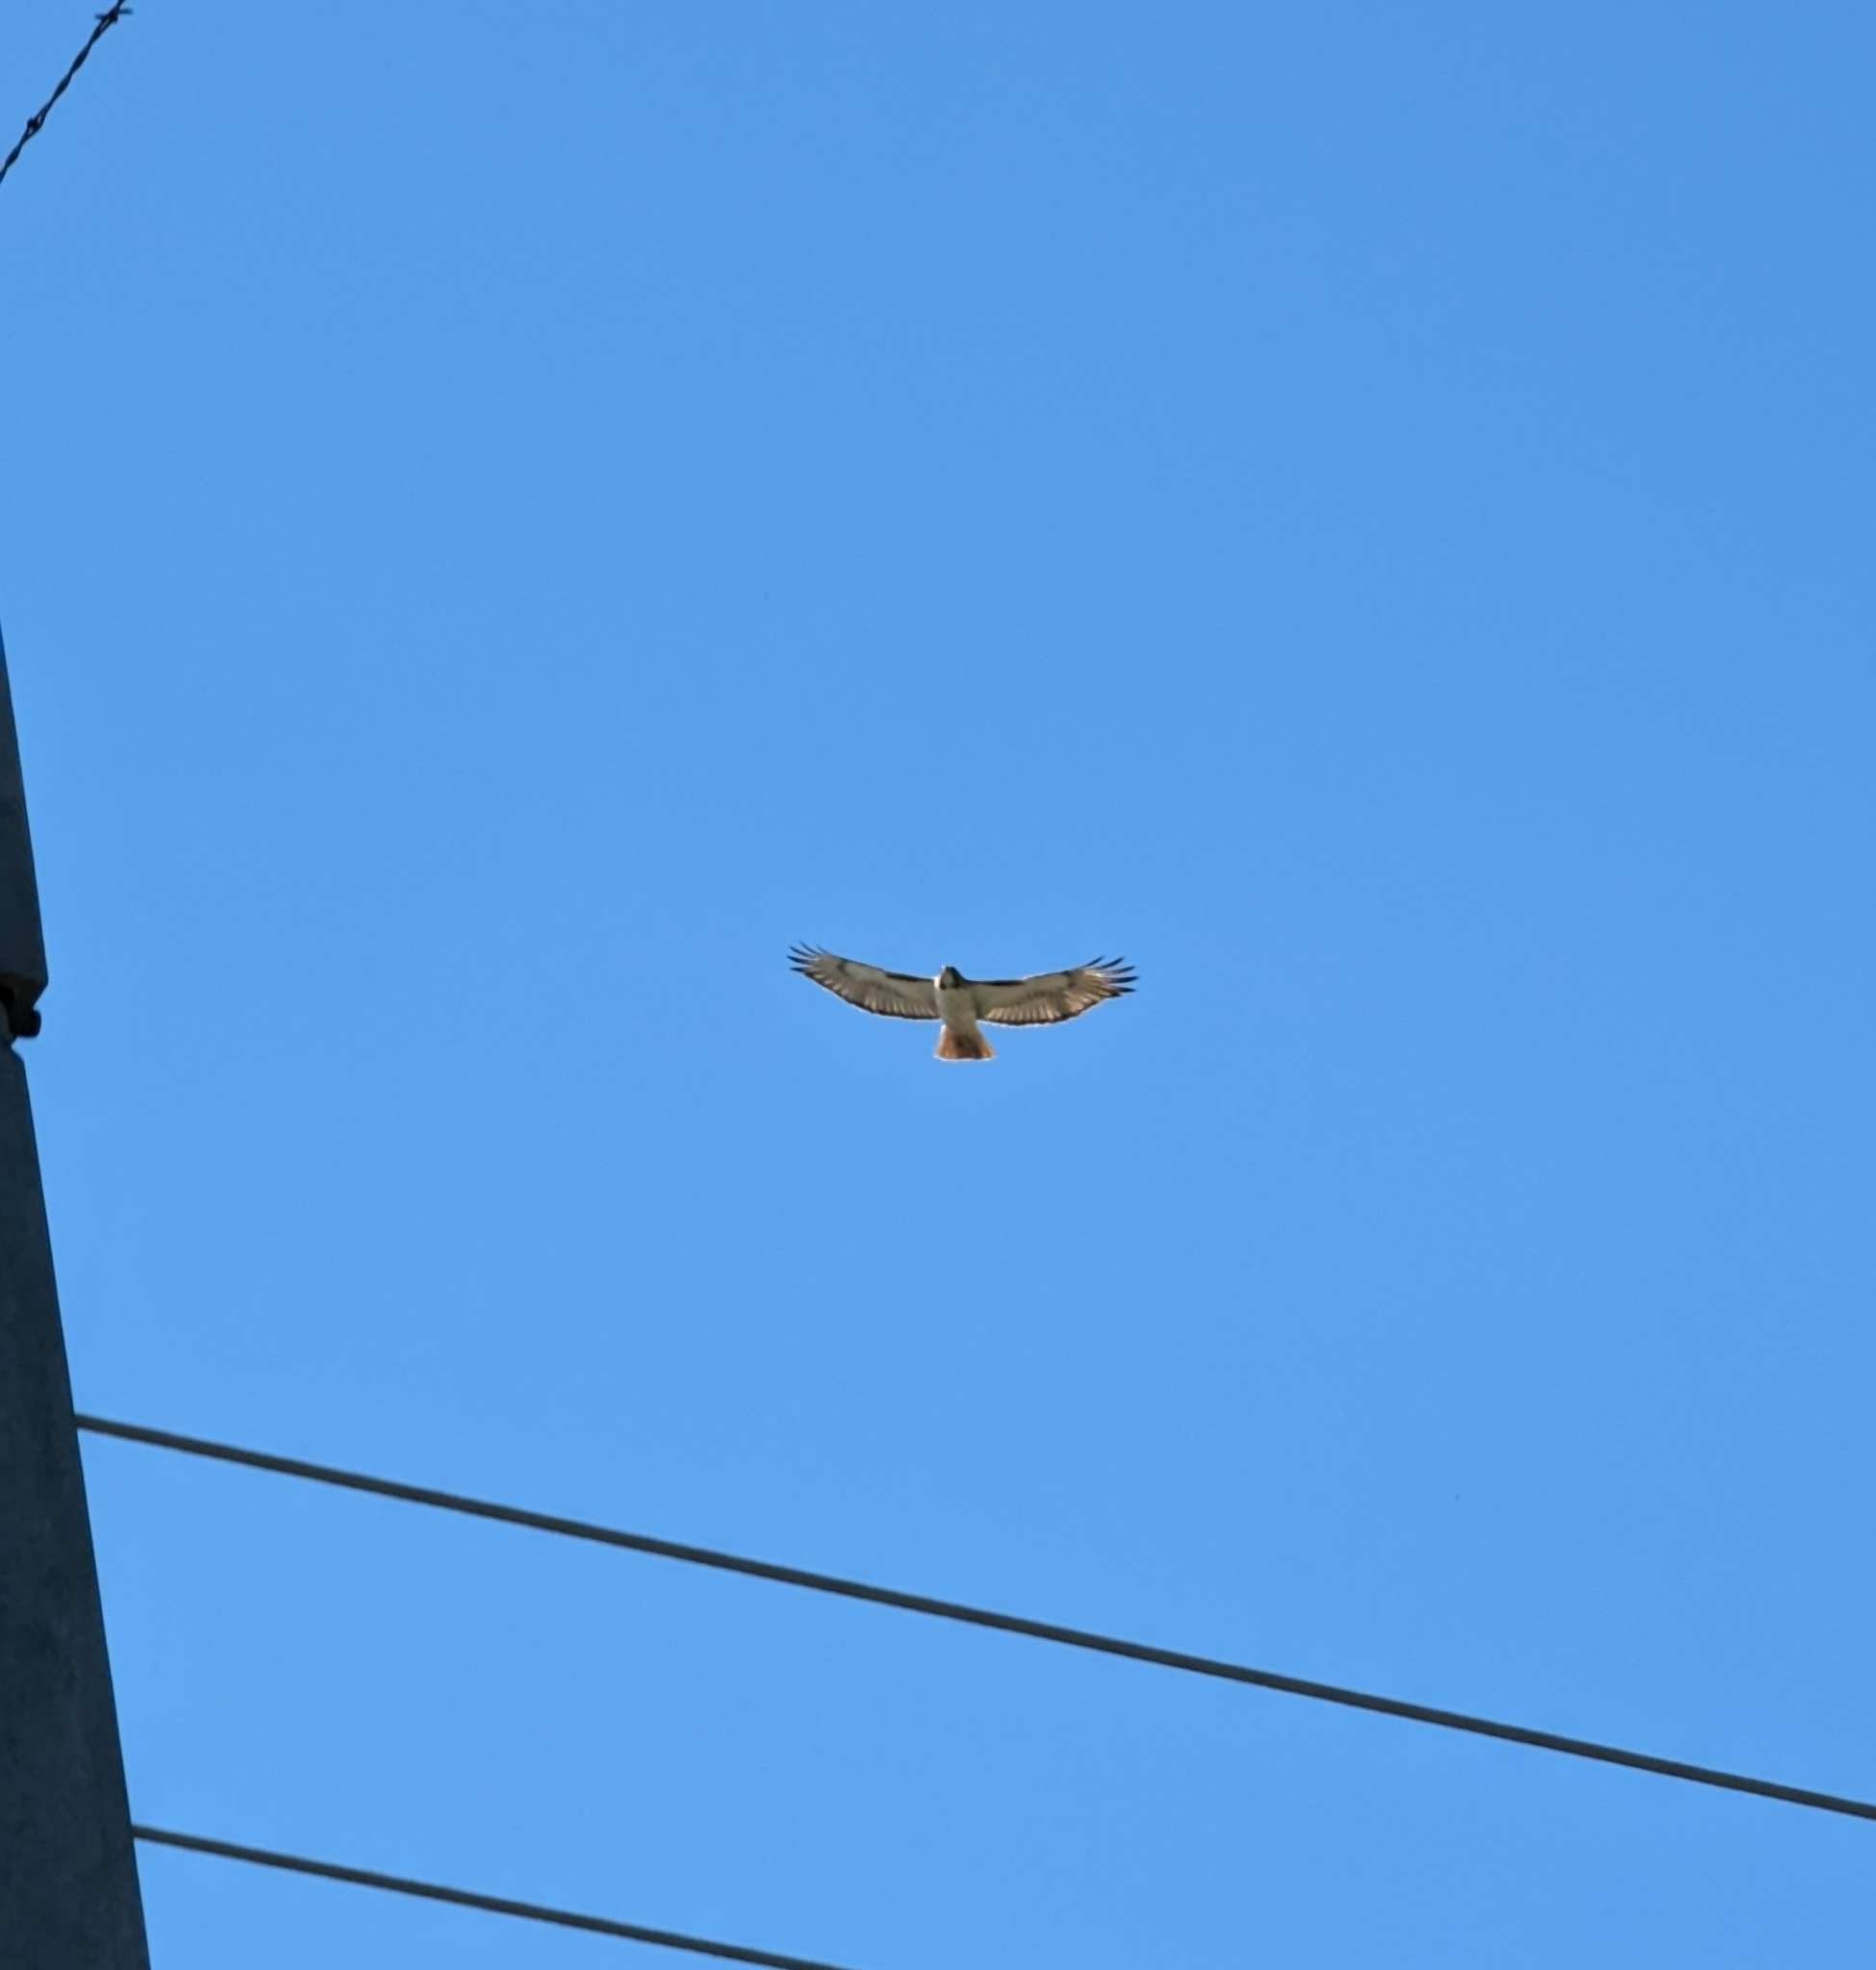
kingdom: Animalia
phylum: Chordata
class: Aves
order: Accipitriformes
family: Accipitridae
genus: Buteo
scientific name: Buteo jamaicensis
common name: Red-tailed hawk
